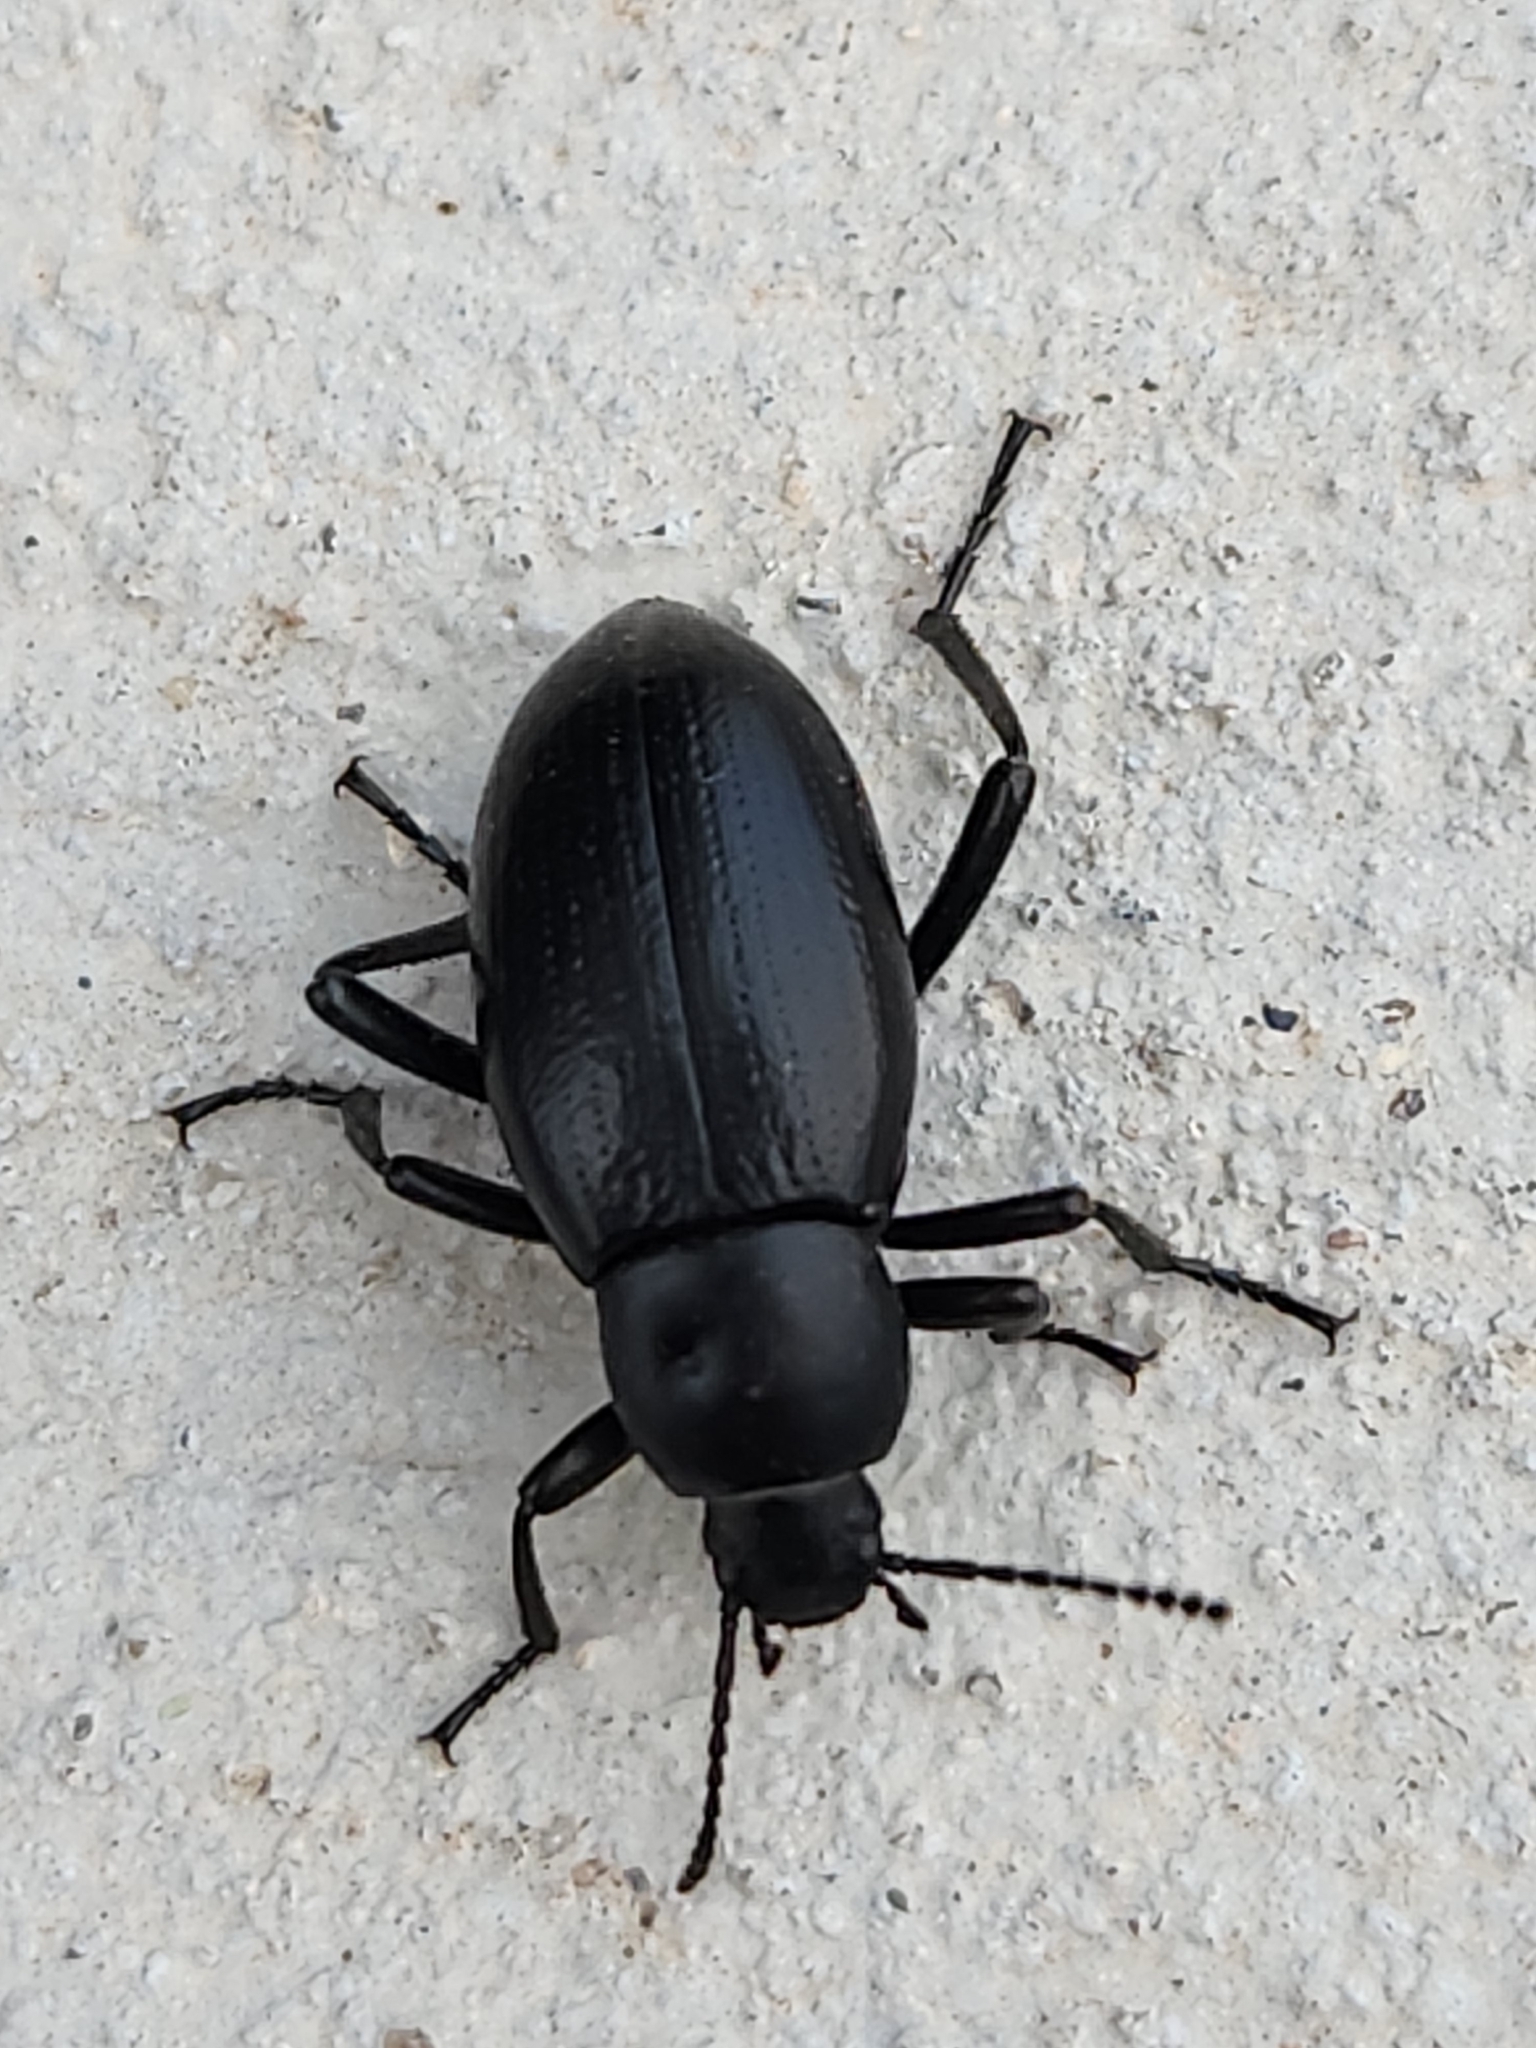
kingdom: Animalia
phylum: Arthropoda
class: Insecta
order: Coleoptera
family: Tenebrionidae
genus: Eleodes
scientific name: Eleodes carbonaria
